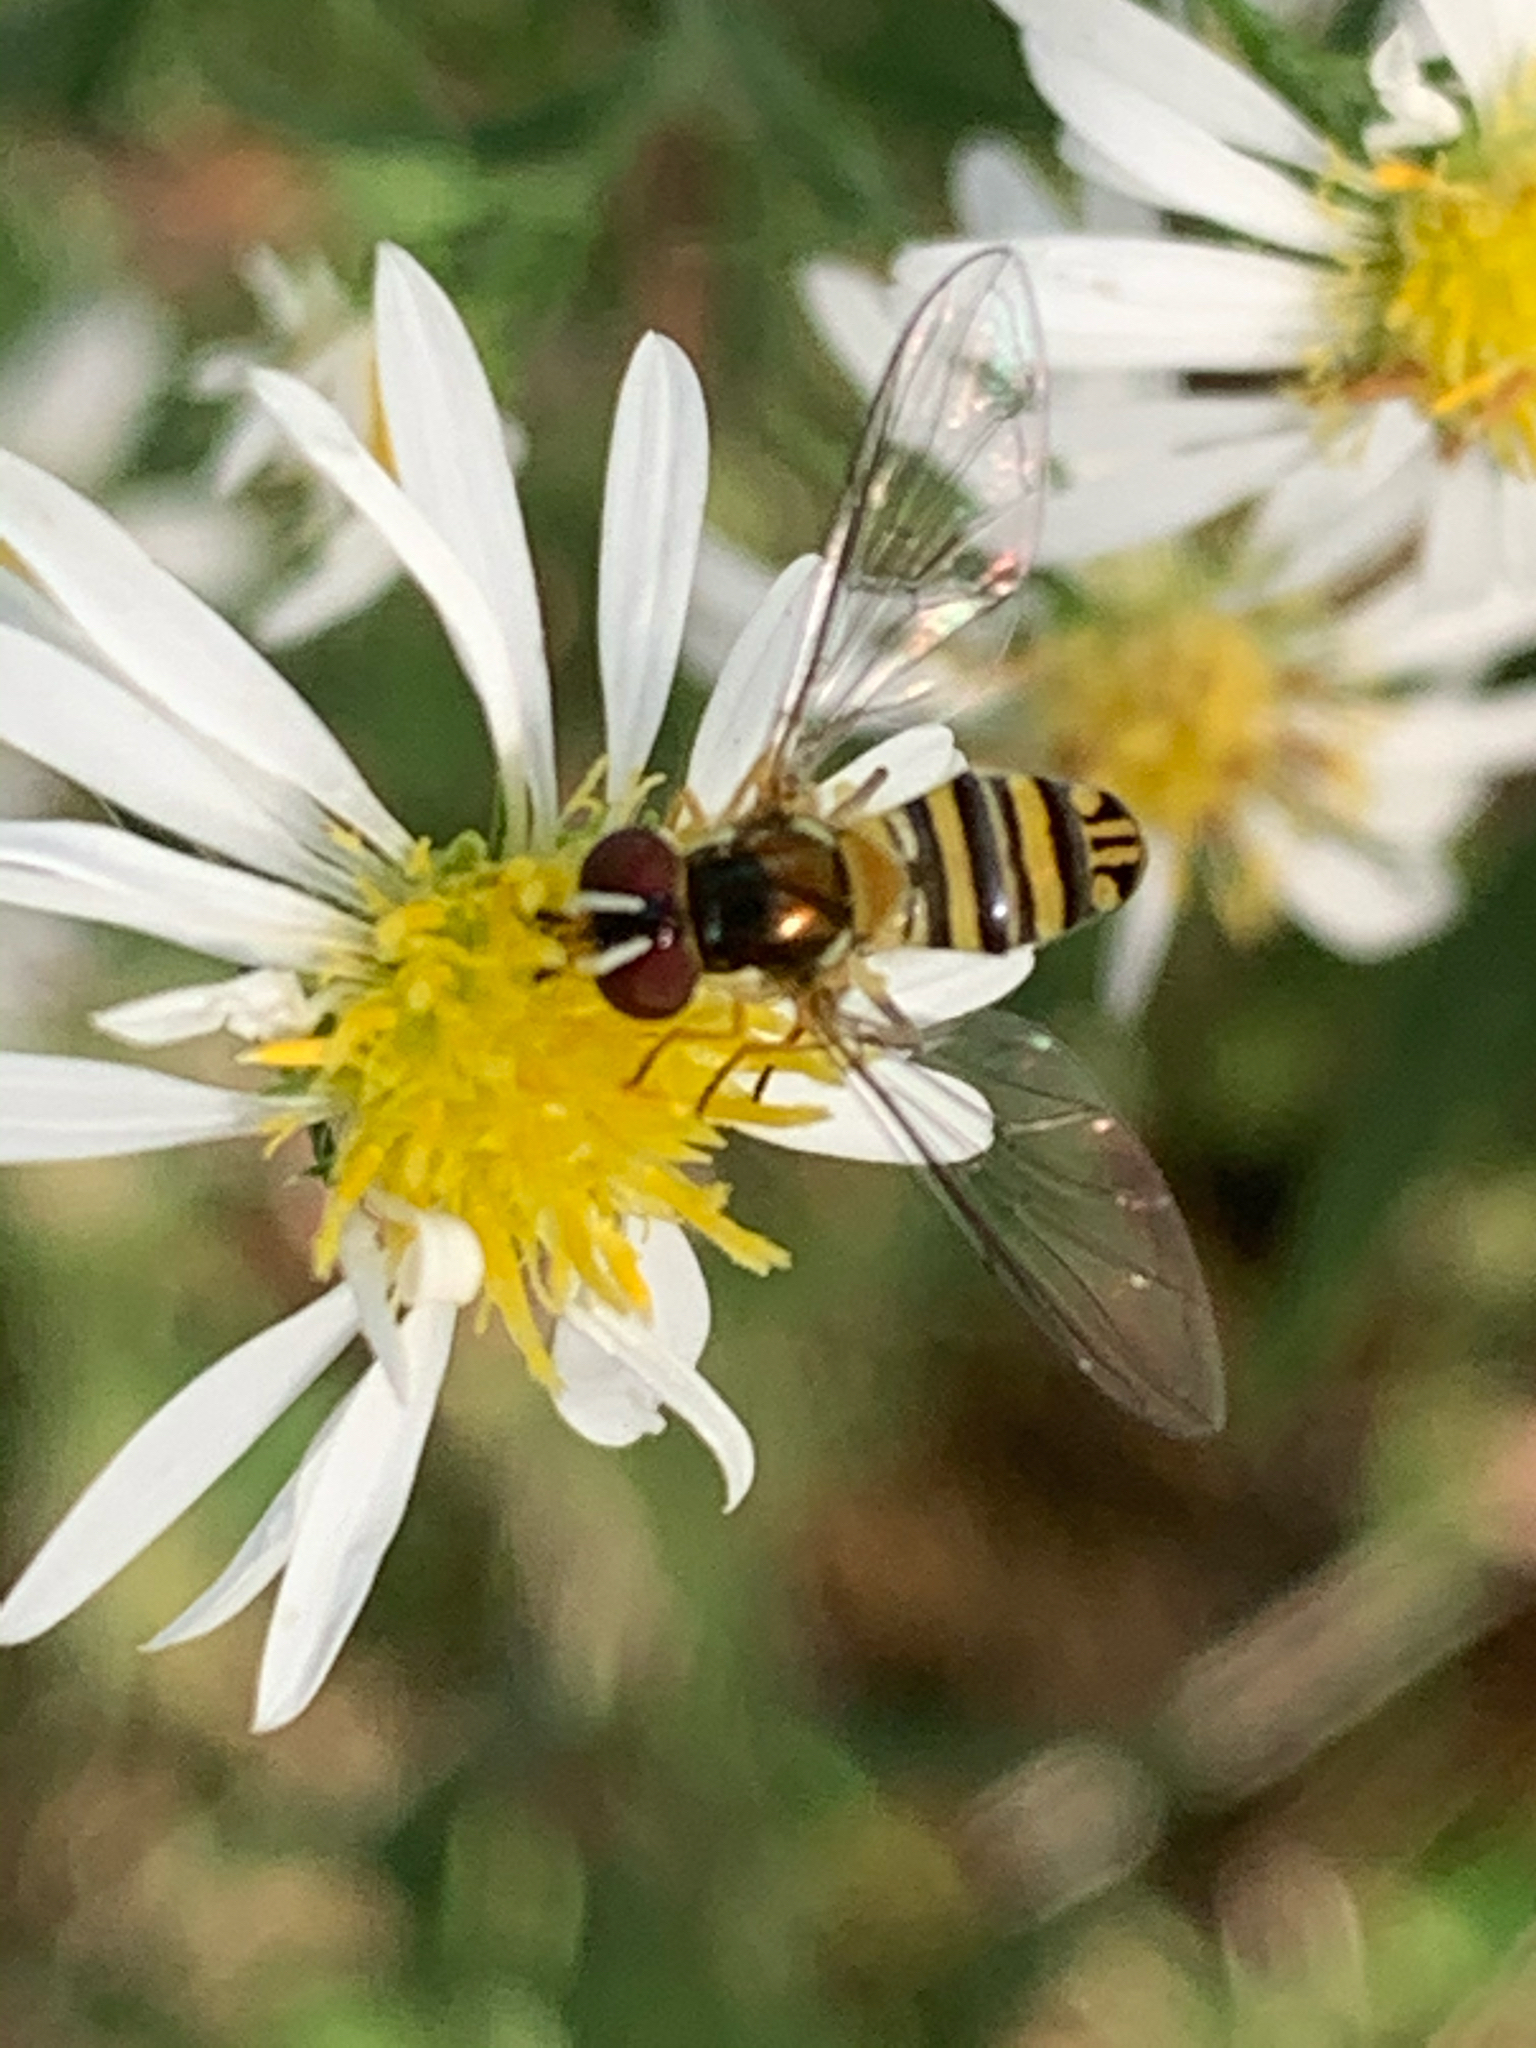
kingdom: Animalia
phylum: Arthropoda
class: Insecta
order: Diptera
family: Syrphidae
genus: Allograpta
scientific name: Allograpta obliqua
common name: Common oblique syrphid
